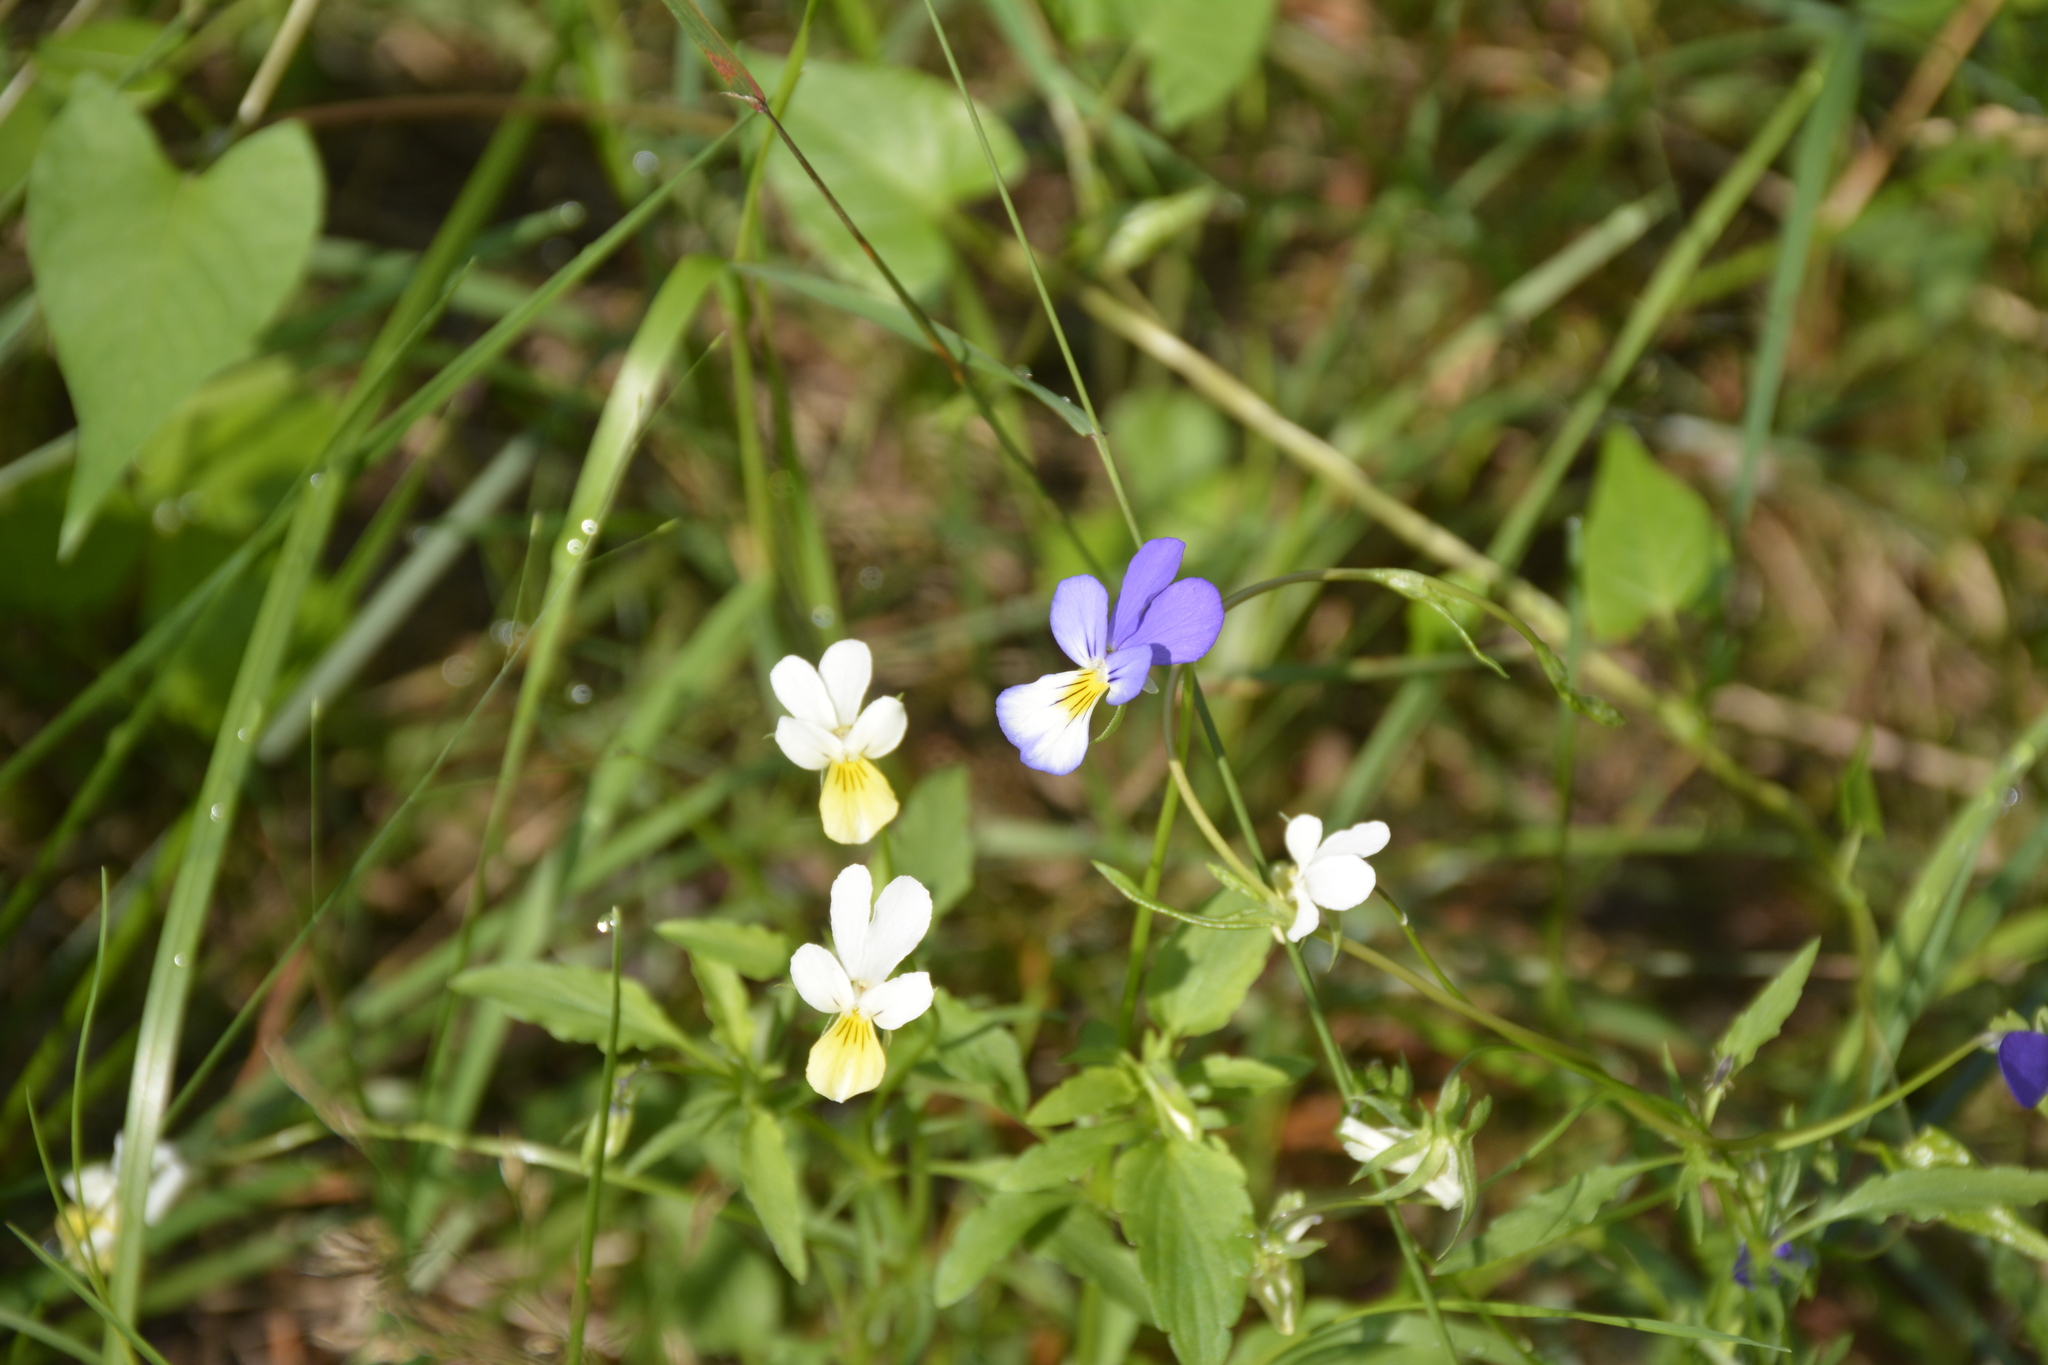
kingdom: Plantae
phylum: Tracheophyta
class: Magnoliopsida
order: Malpighiales
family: Violaceae
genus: Viola
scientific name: Viola tricolor
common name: Pansy
